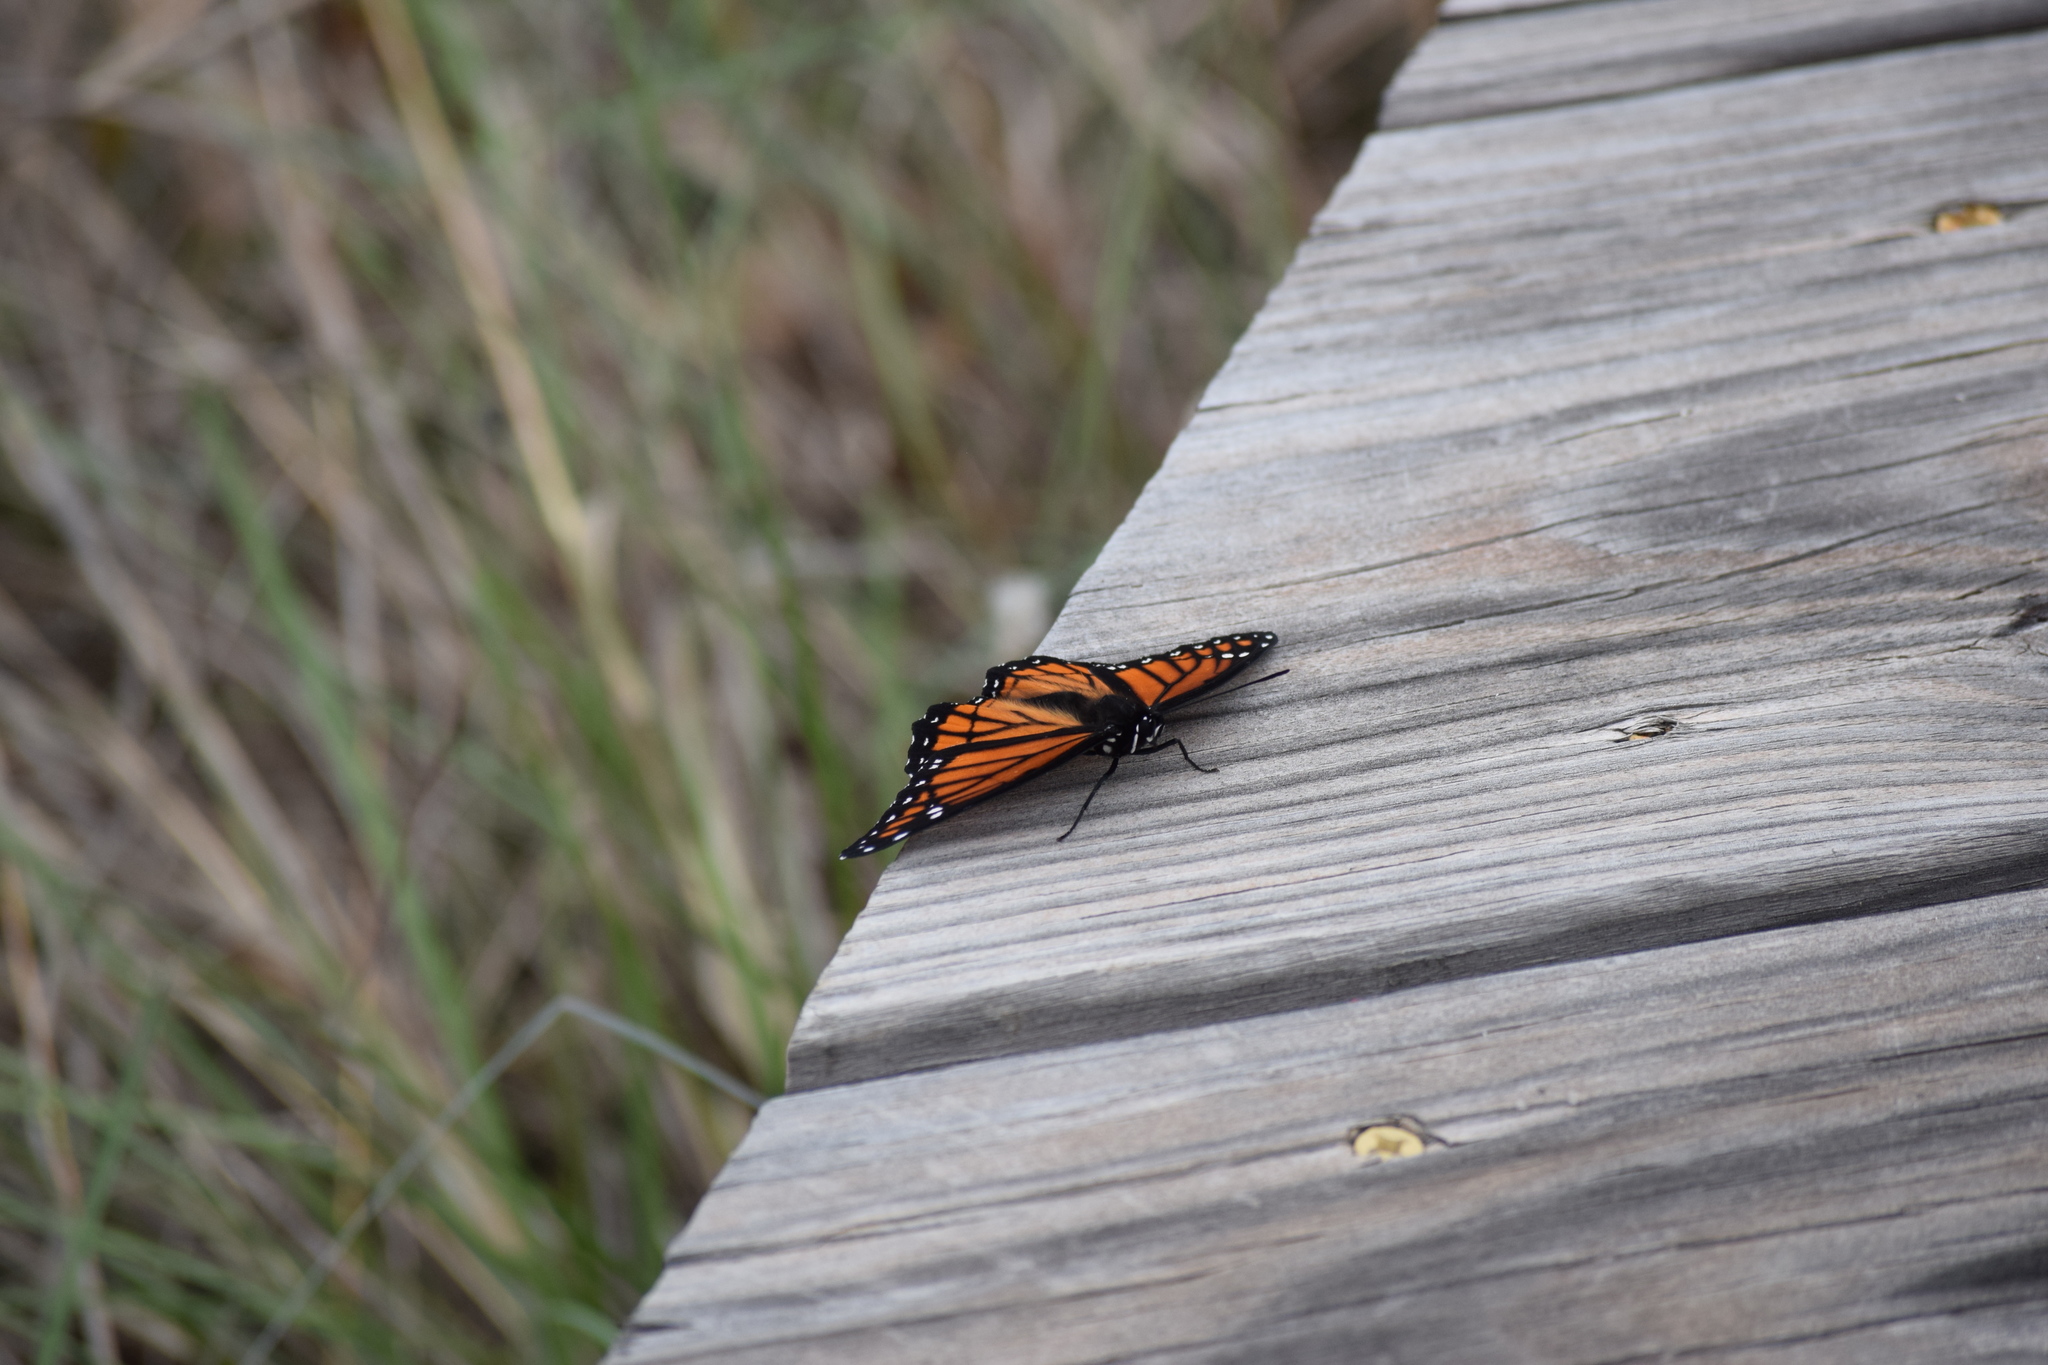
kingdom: Animalia
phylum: Arthropoda
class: Insecta
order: Lepidoptera
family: Nymphalidae
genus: Limenitis
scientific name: Limenitis archippus
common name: Viceroy
